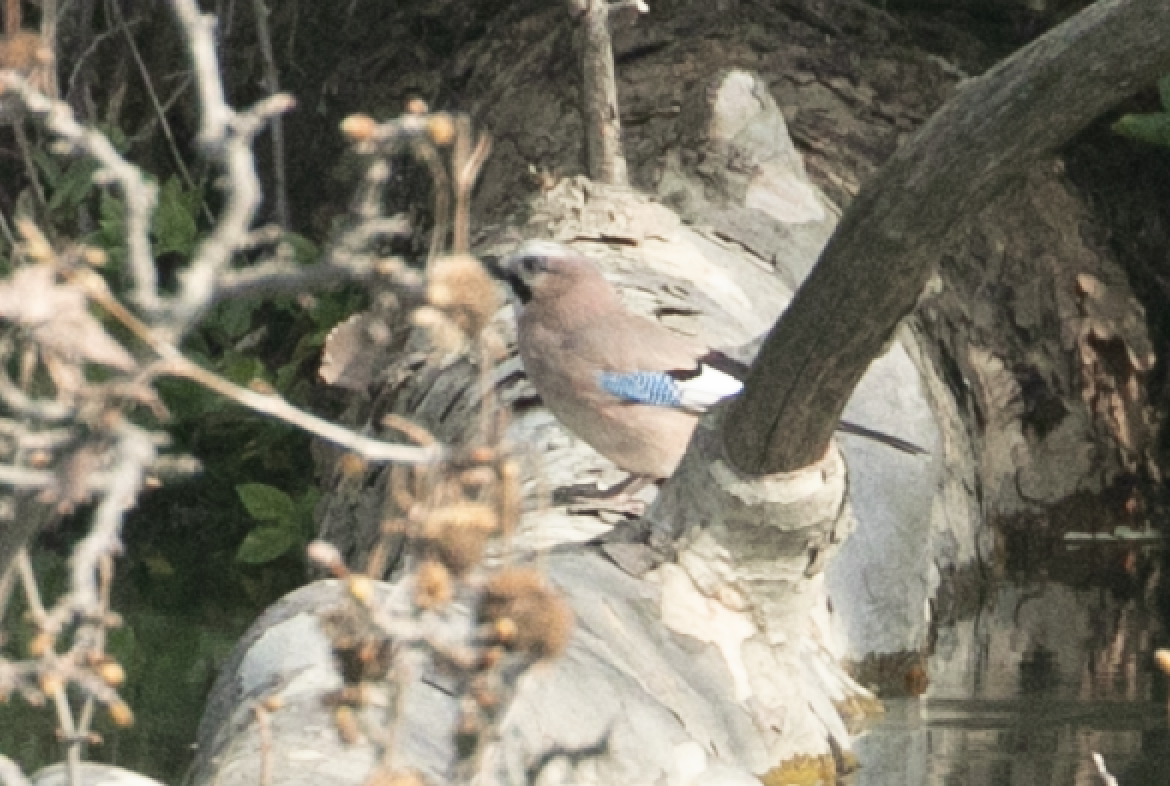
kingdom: Animalia
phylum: Chordata
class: Aves
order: Passeriformes
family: Corvidae
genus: Garrulus
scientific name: Garrulus glandarius
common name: Eurasian jay
